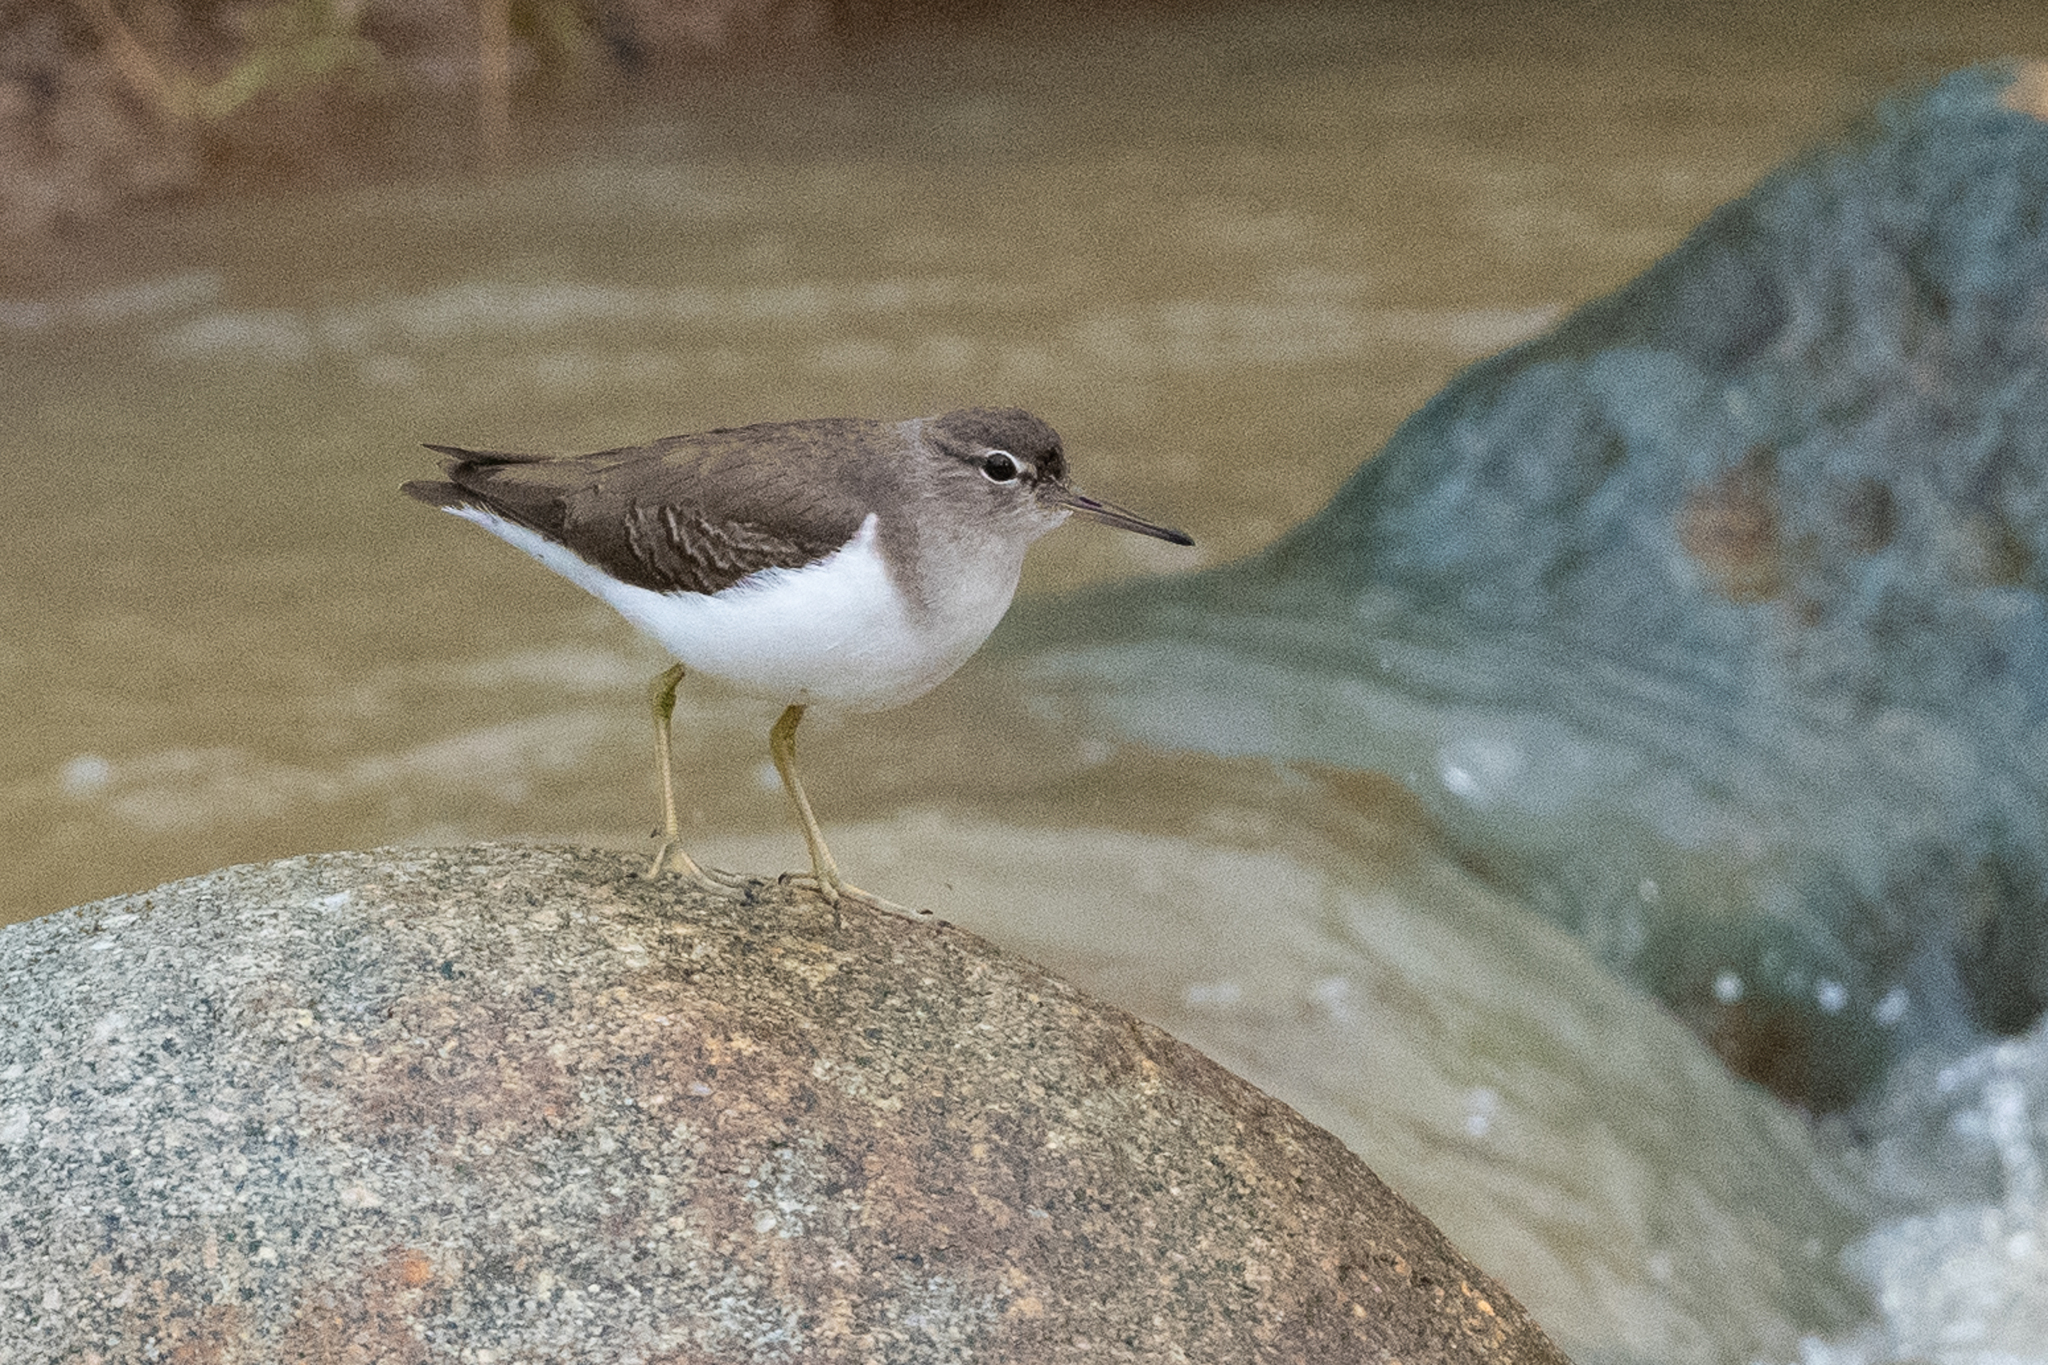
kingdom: Animalia
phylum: Chordata
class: Aves
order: Charadriiformes
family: Scolopacidae
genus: Actitis
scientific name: Actitis macularius
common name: Spotted sandpiper
